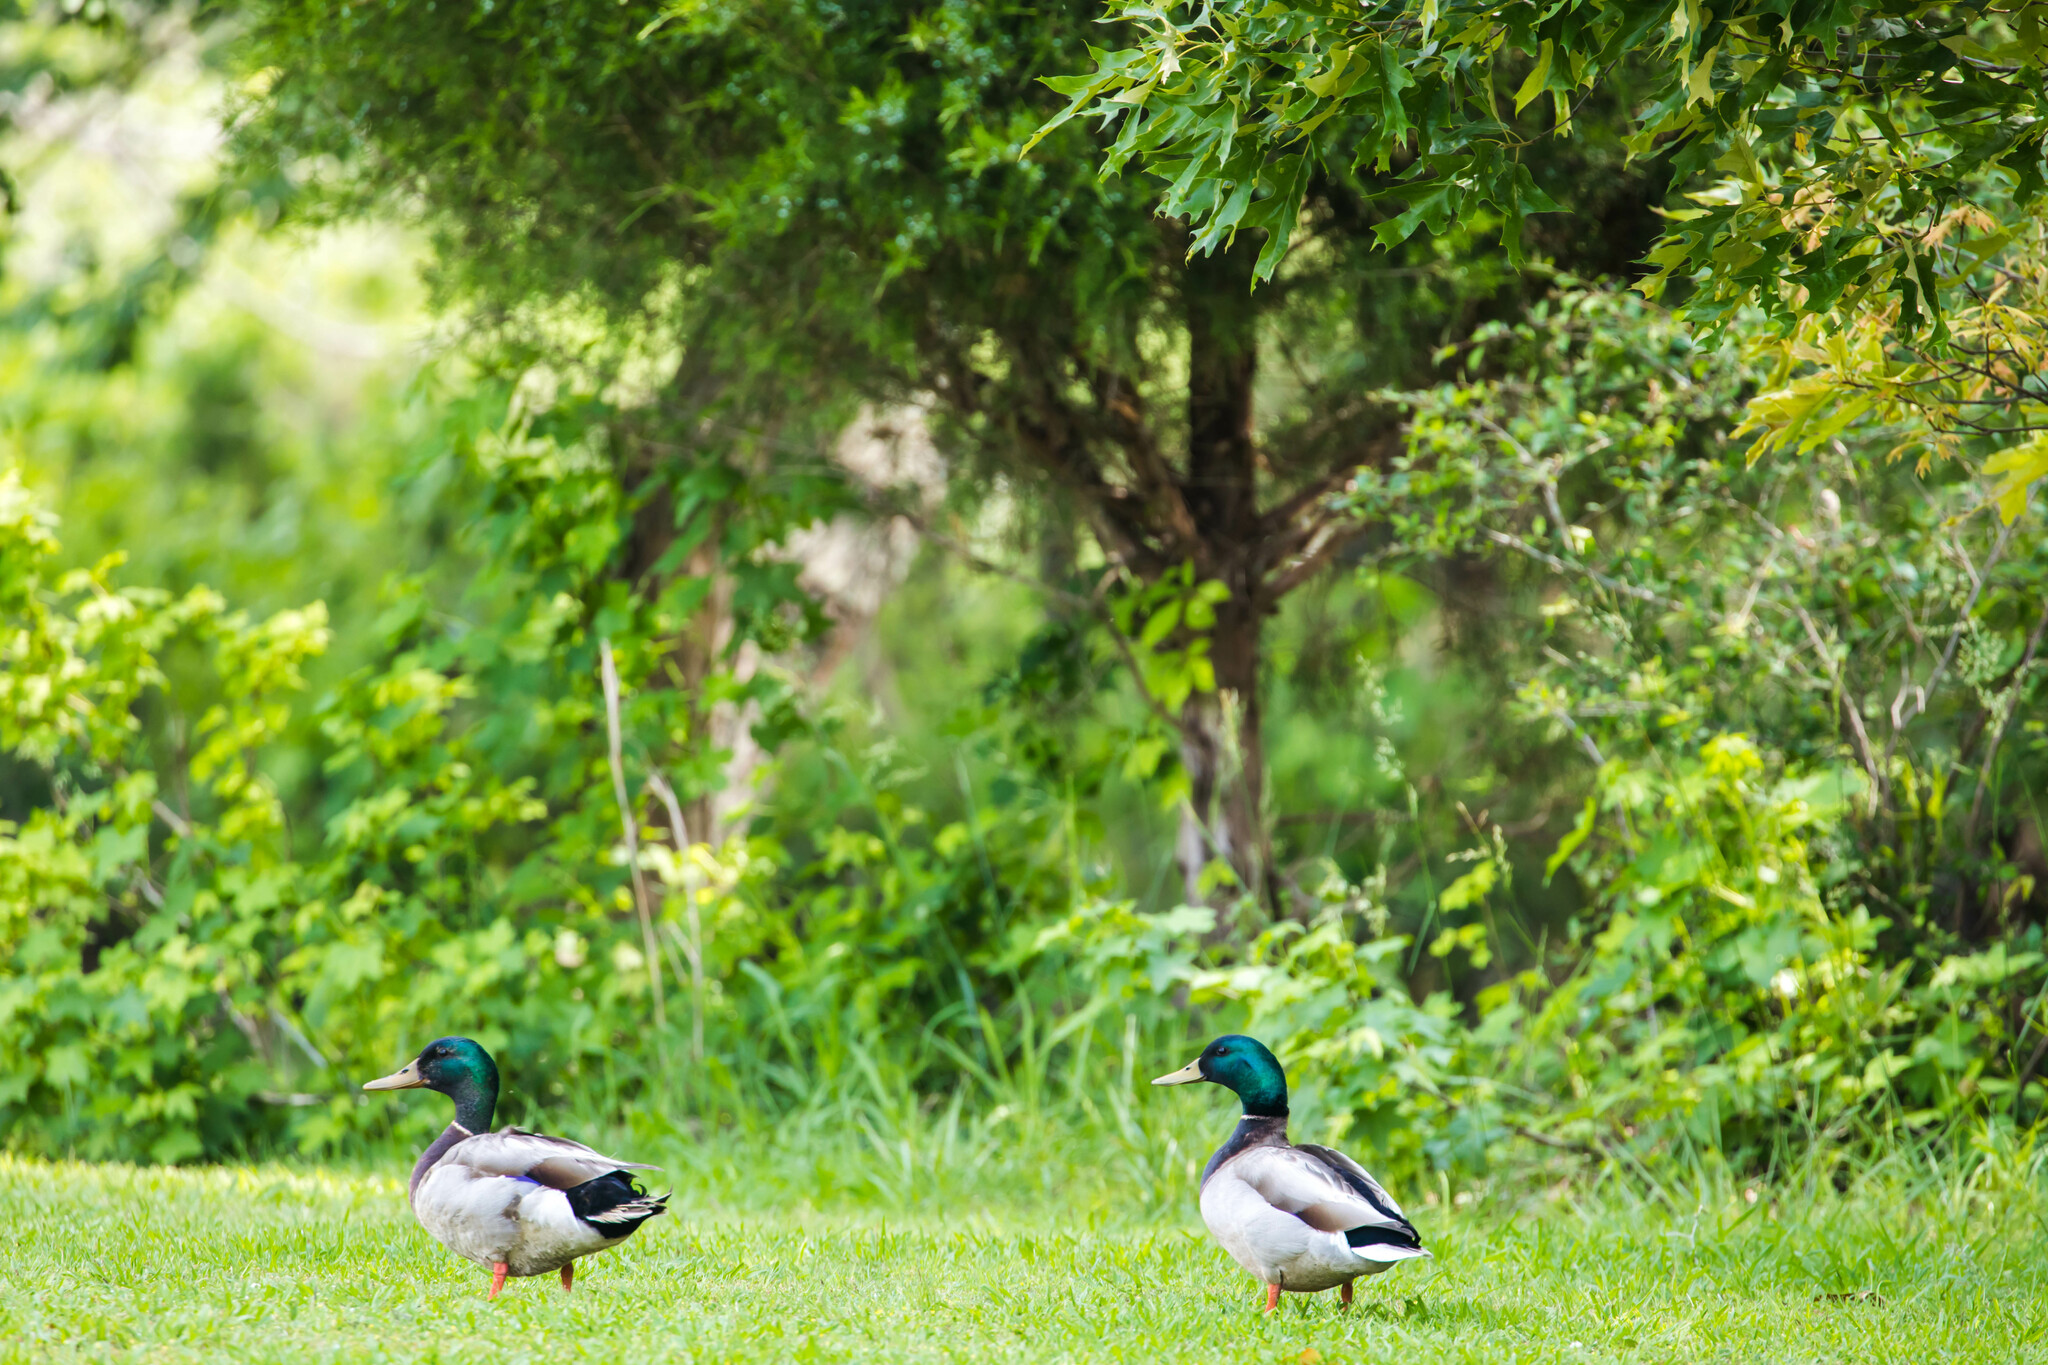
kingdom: Animalia
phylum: Chordata
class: Aves
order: Anseriformes
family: Anatidae
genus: Anas
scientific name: Anas platyrhynchos
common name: Mallard
